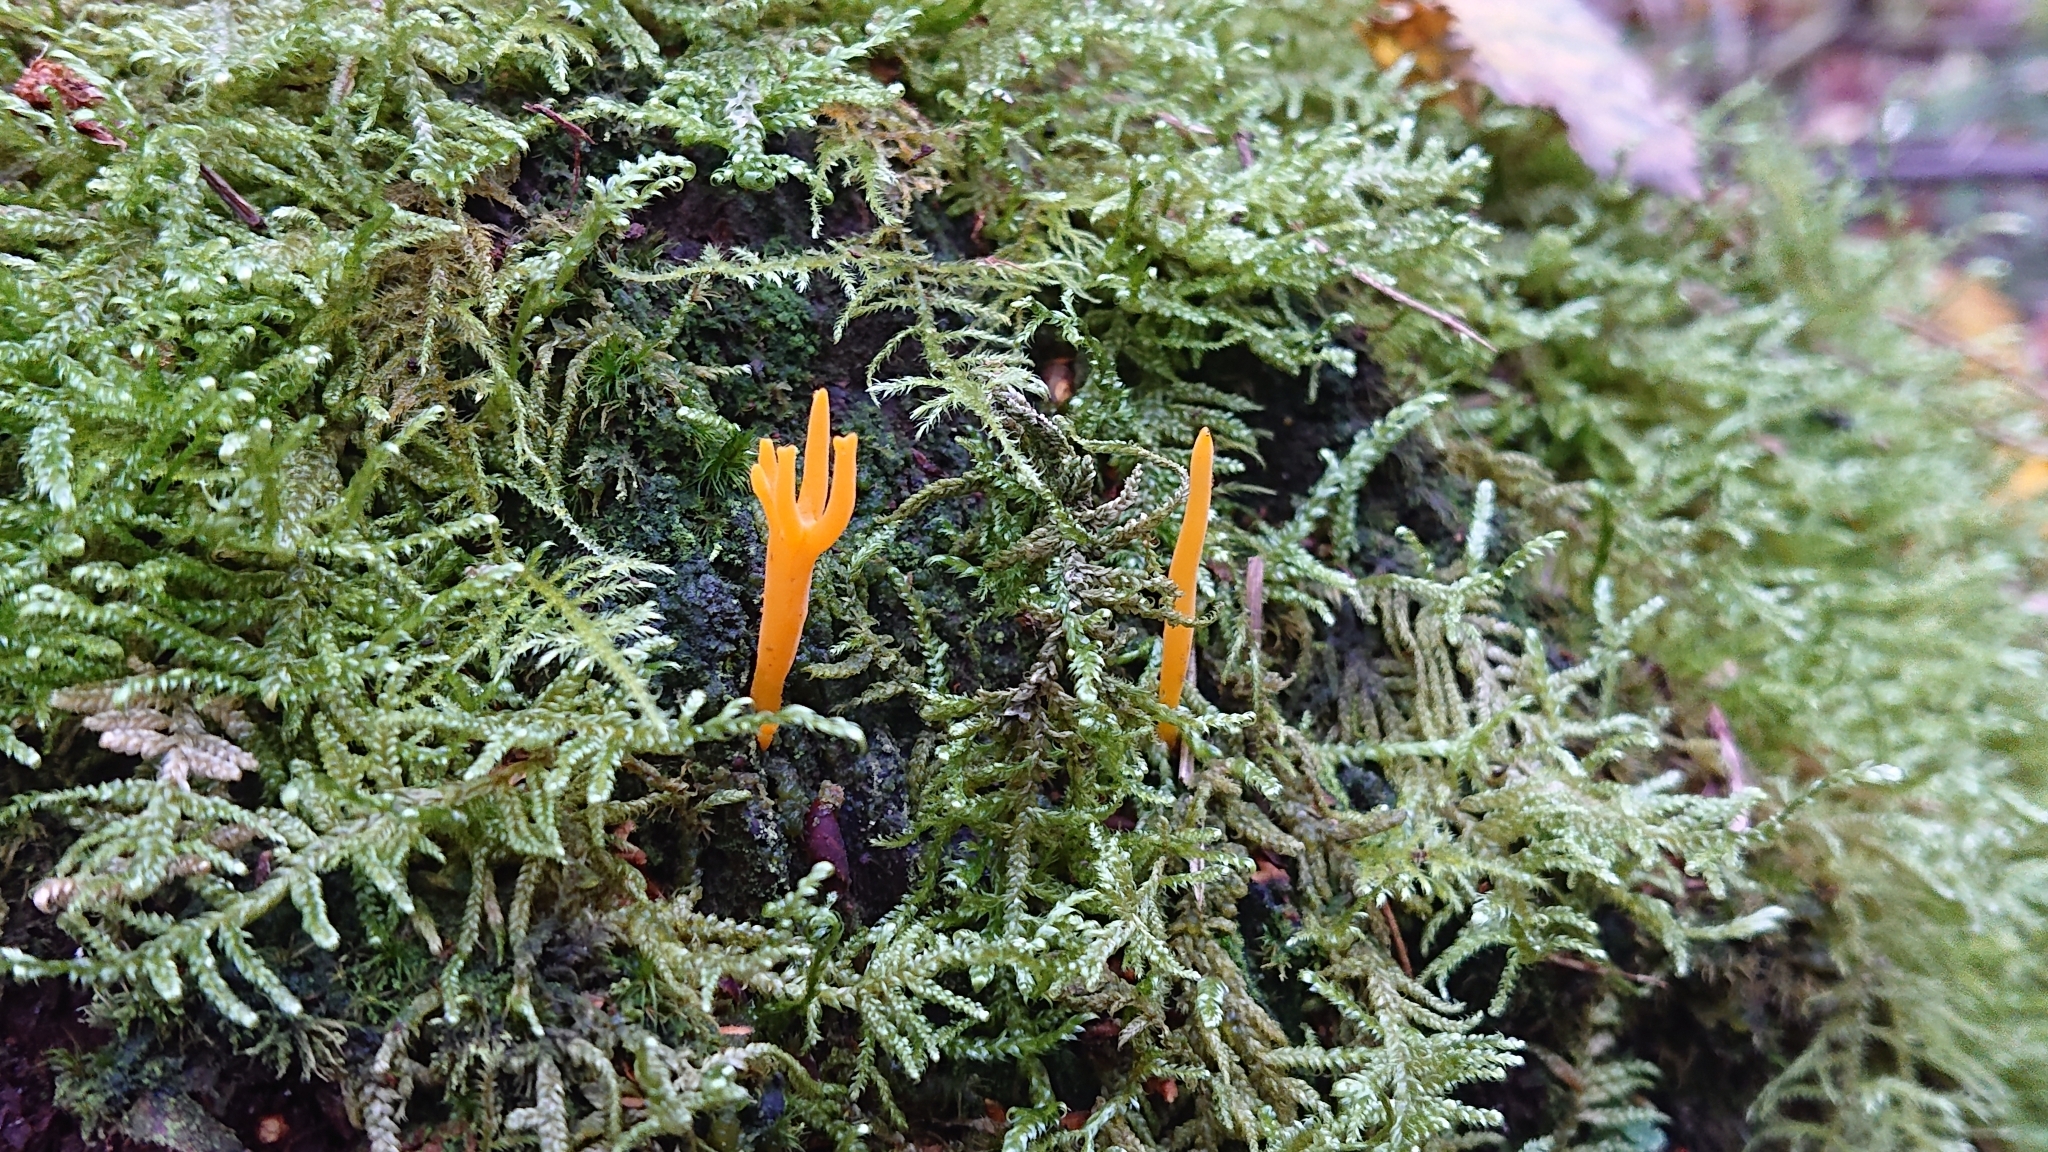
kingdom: Fungi
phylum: Basidiomycota
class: Dacrymycetes
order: Dacrymycetales
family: Dacrymycetaceae
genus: Calocera
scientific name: Calocera viscosa
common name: Yellow stagshorn
